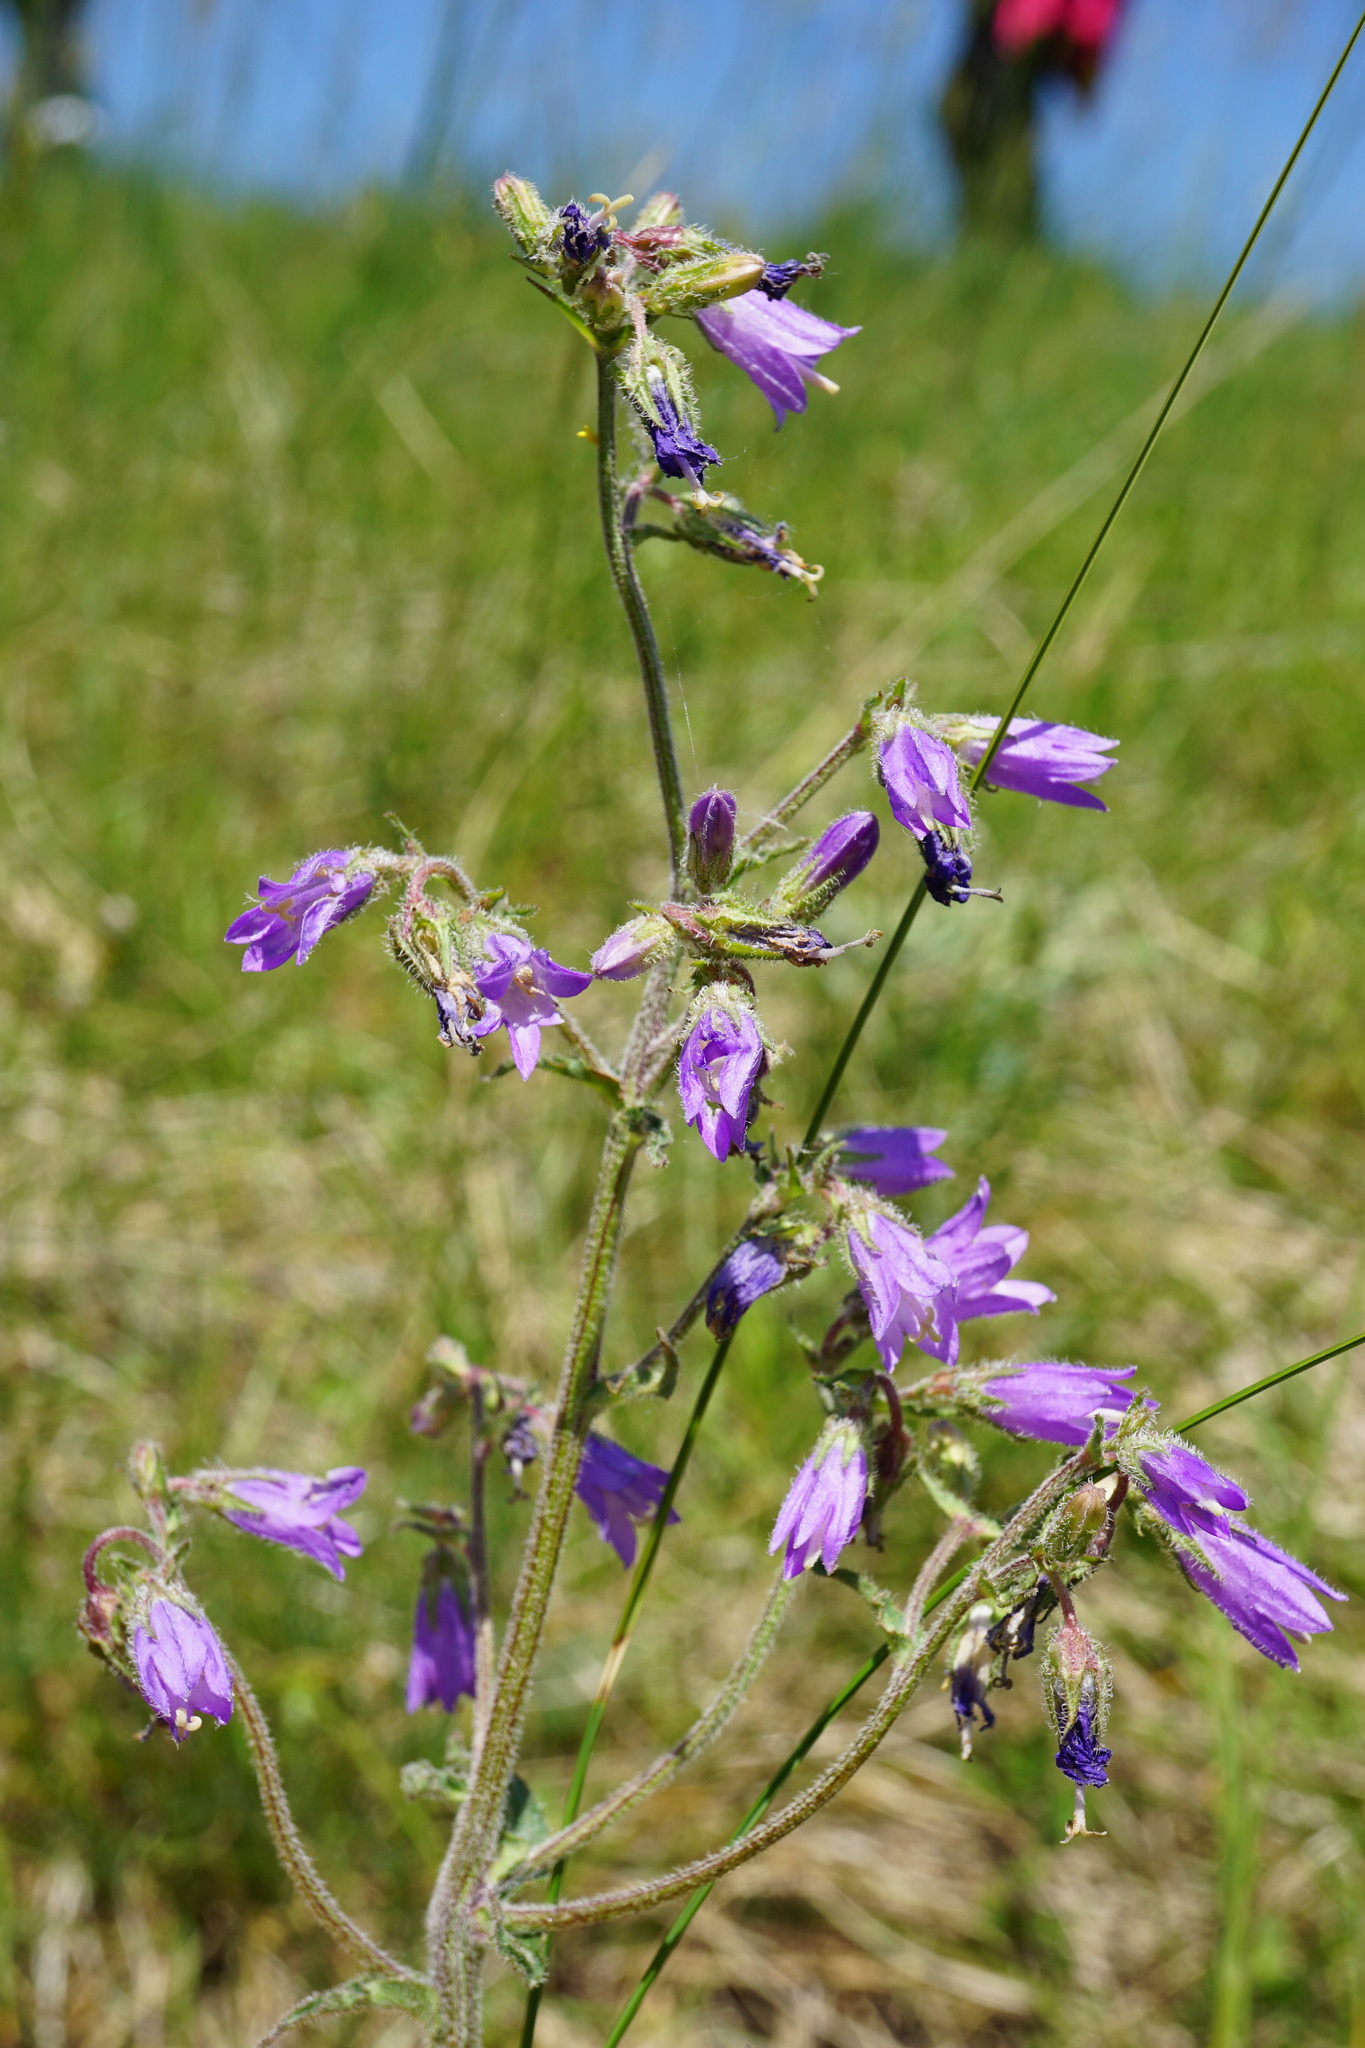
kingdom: Plantae
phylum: Tracheophyta
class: Magnoliopsida
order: Asterales
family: Campanulaceae
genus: Campanula
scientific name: Campanula sibirica
